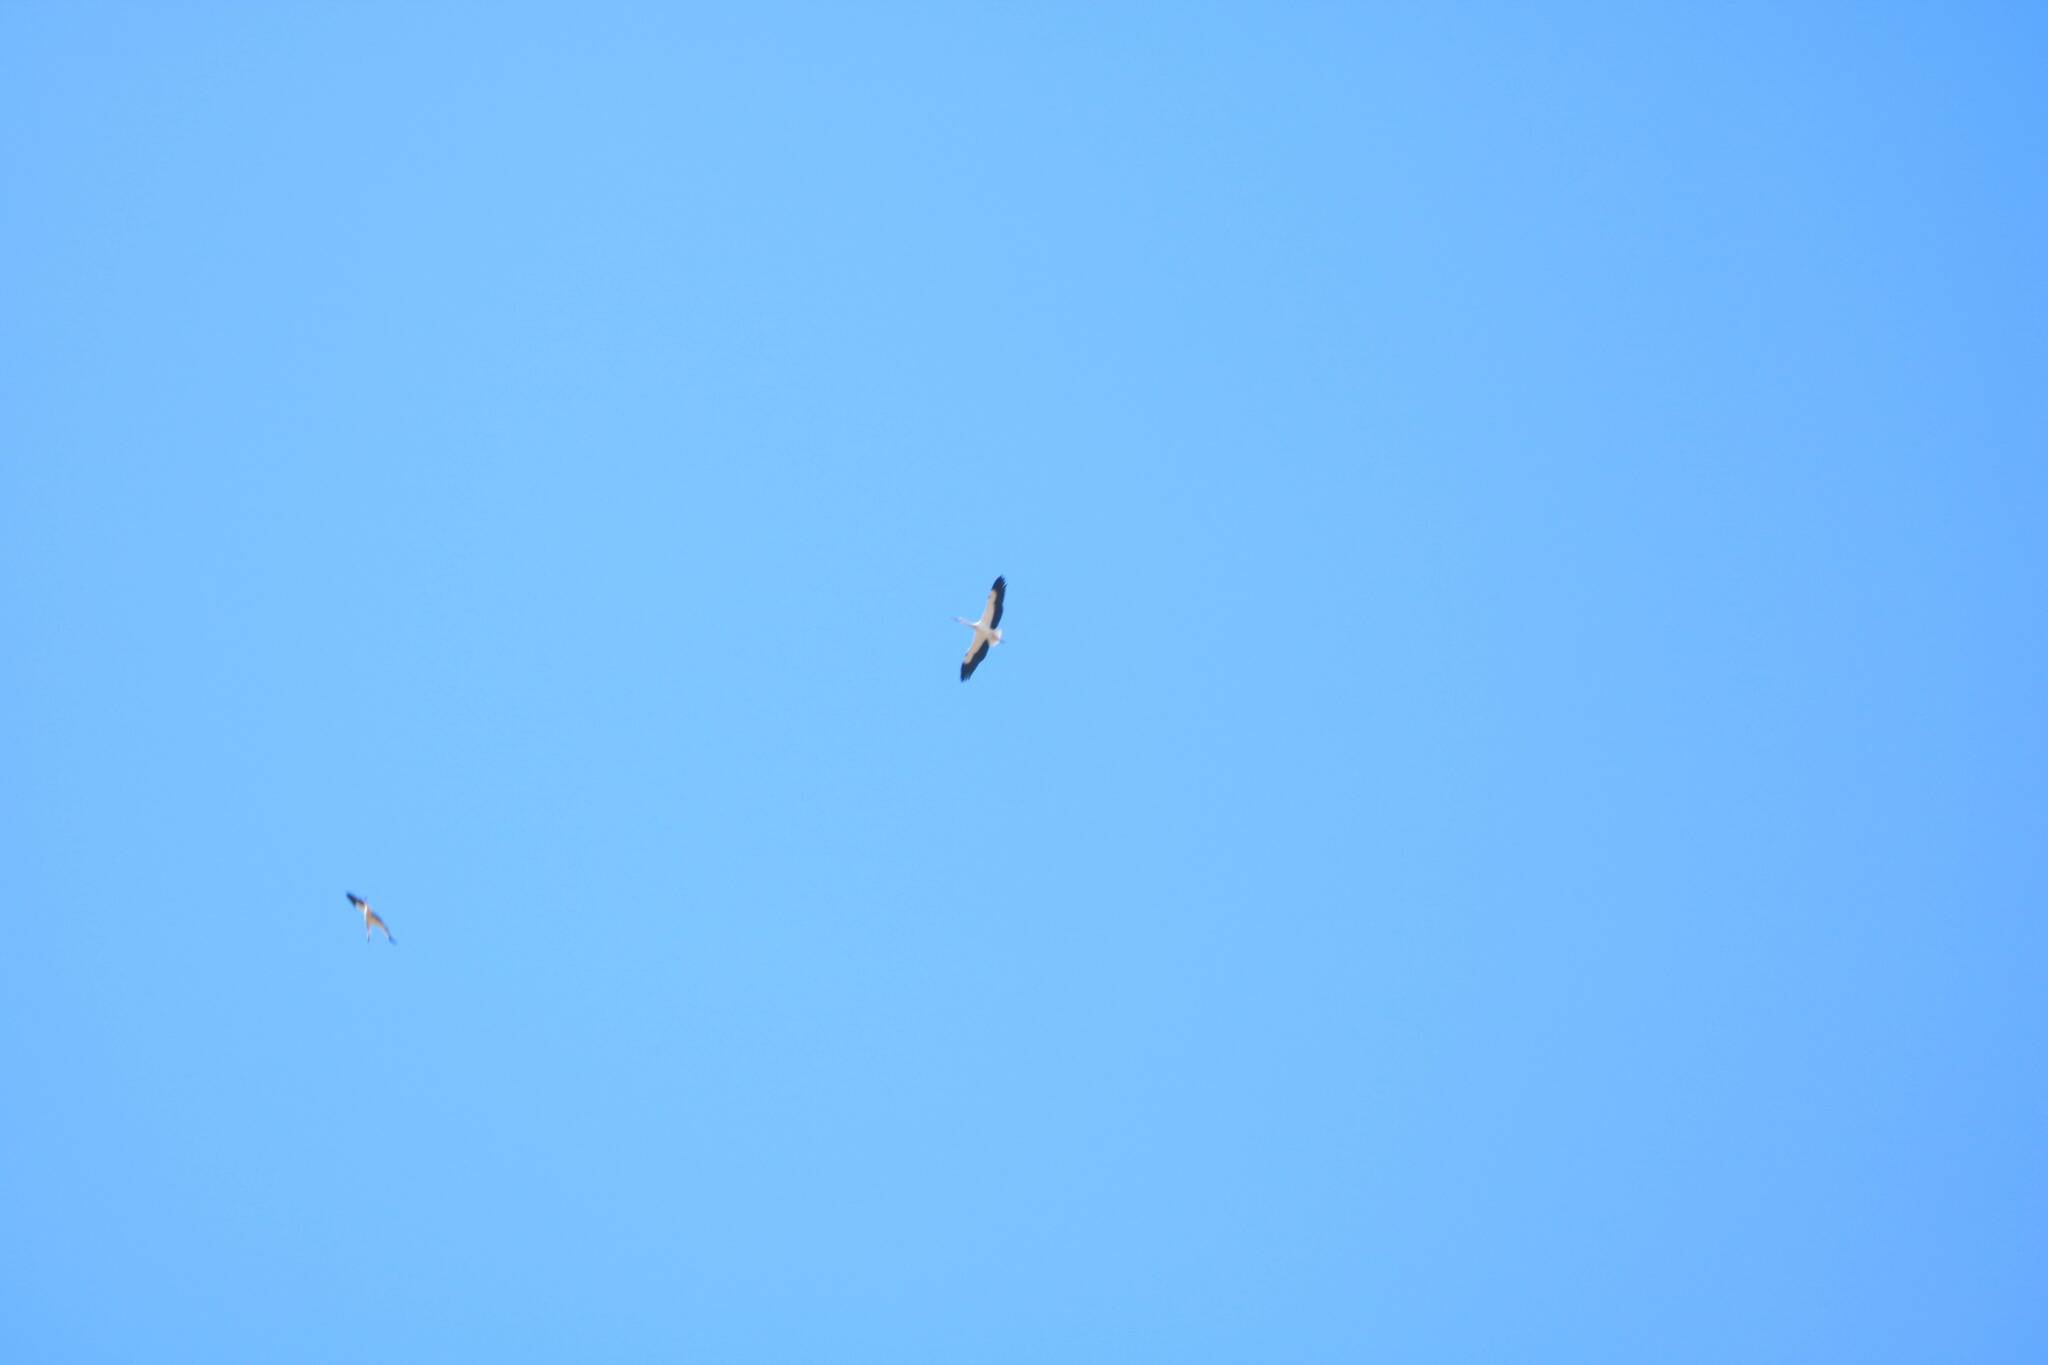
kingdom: Animalia
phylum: Chordata
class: Aves
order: Ciconiiformes
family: Ciconiidae
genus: Ciconia
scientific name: Ciconia ciconia
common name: White stork
